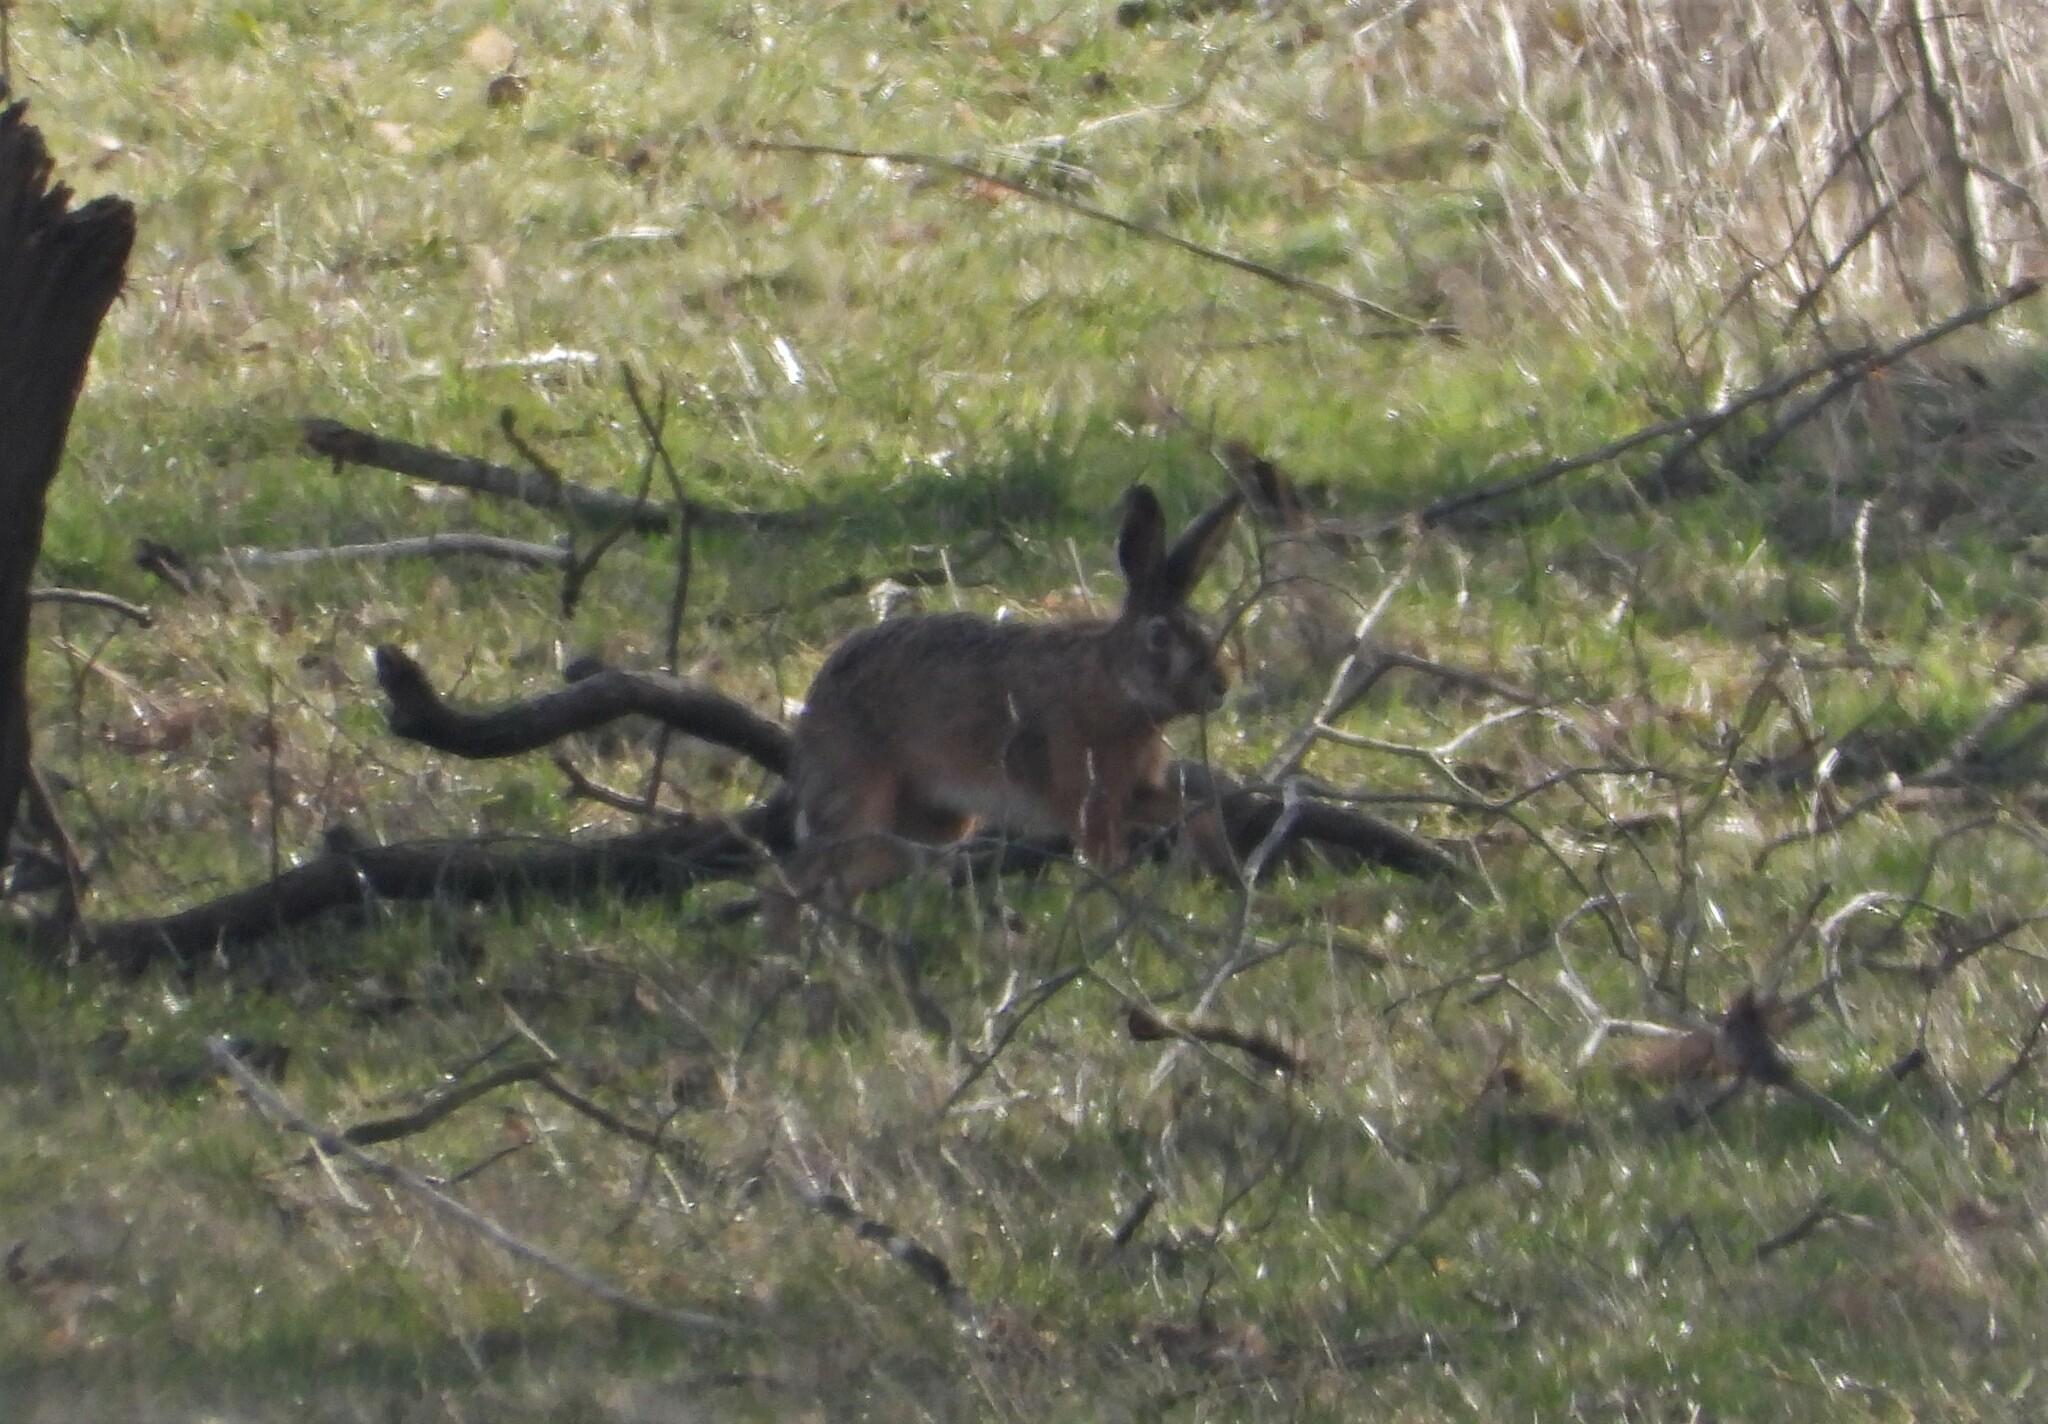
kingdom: Animalia
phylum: Chordata
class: Mammalia
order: Lagomorpha
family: Leporidae
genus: Lepus
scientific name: Lepus europaeus
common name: European hare
